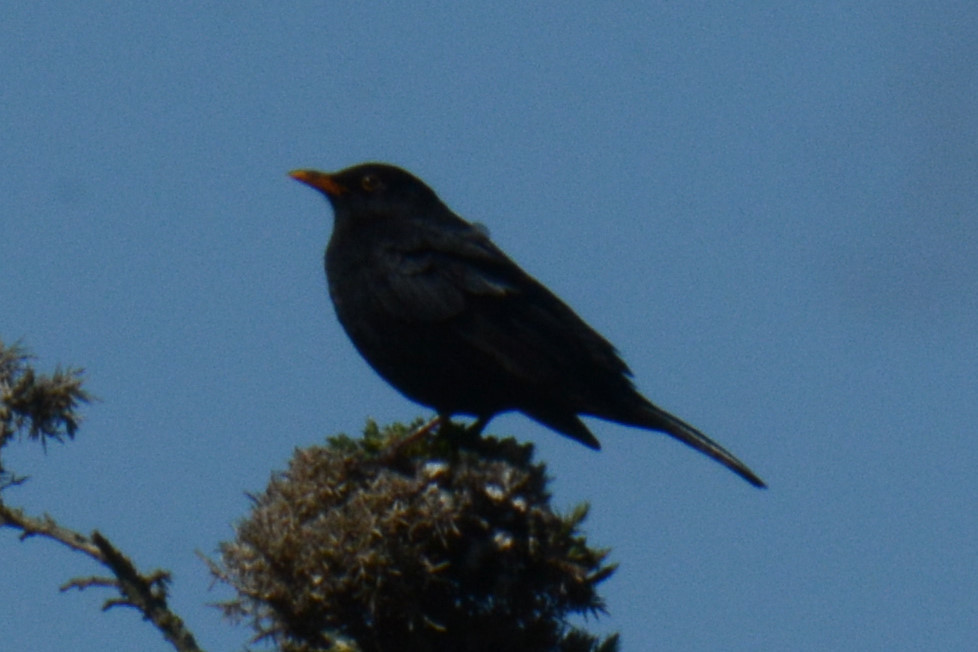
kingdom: Animalia
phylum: Chordata
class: Aves
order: Passeriformes
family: Turdidae
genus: Turdus
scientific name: Turdus merula
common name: Common blackbird
